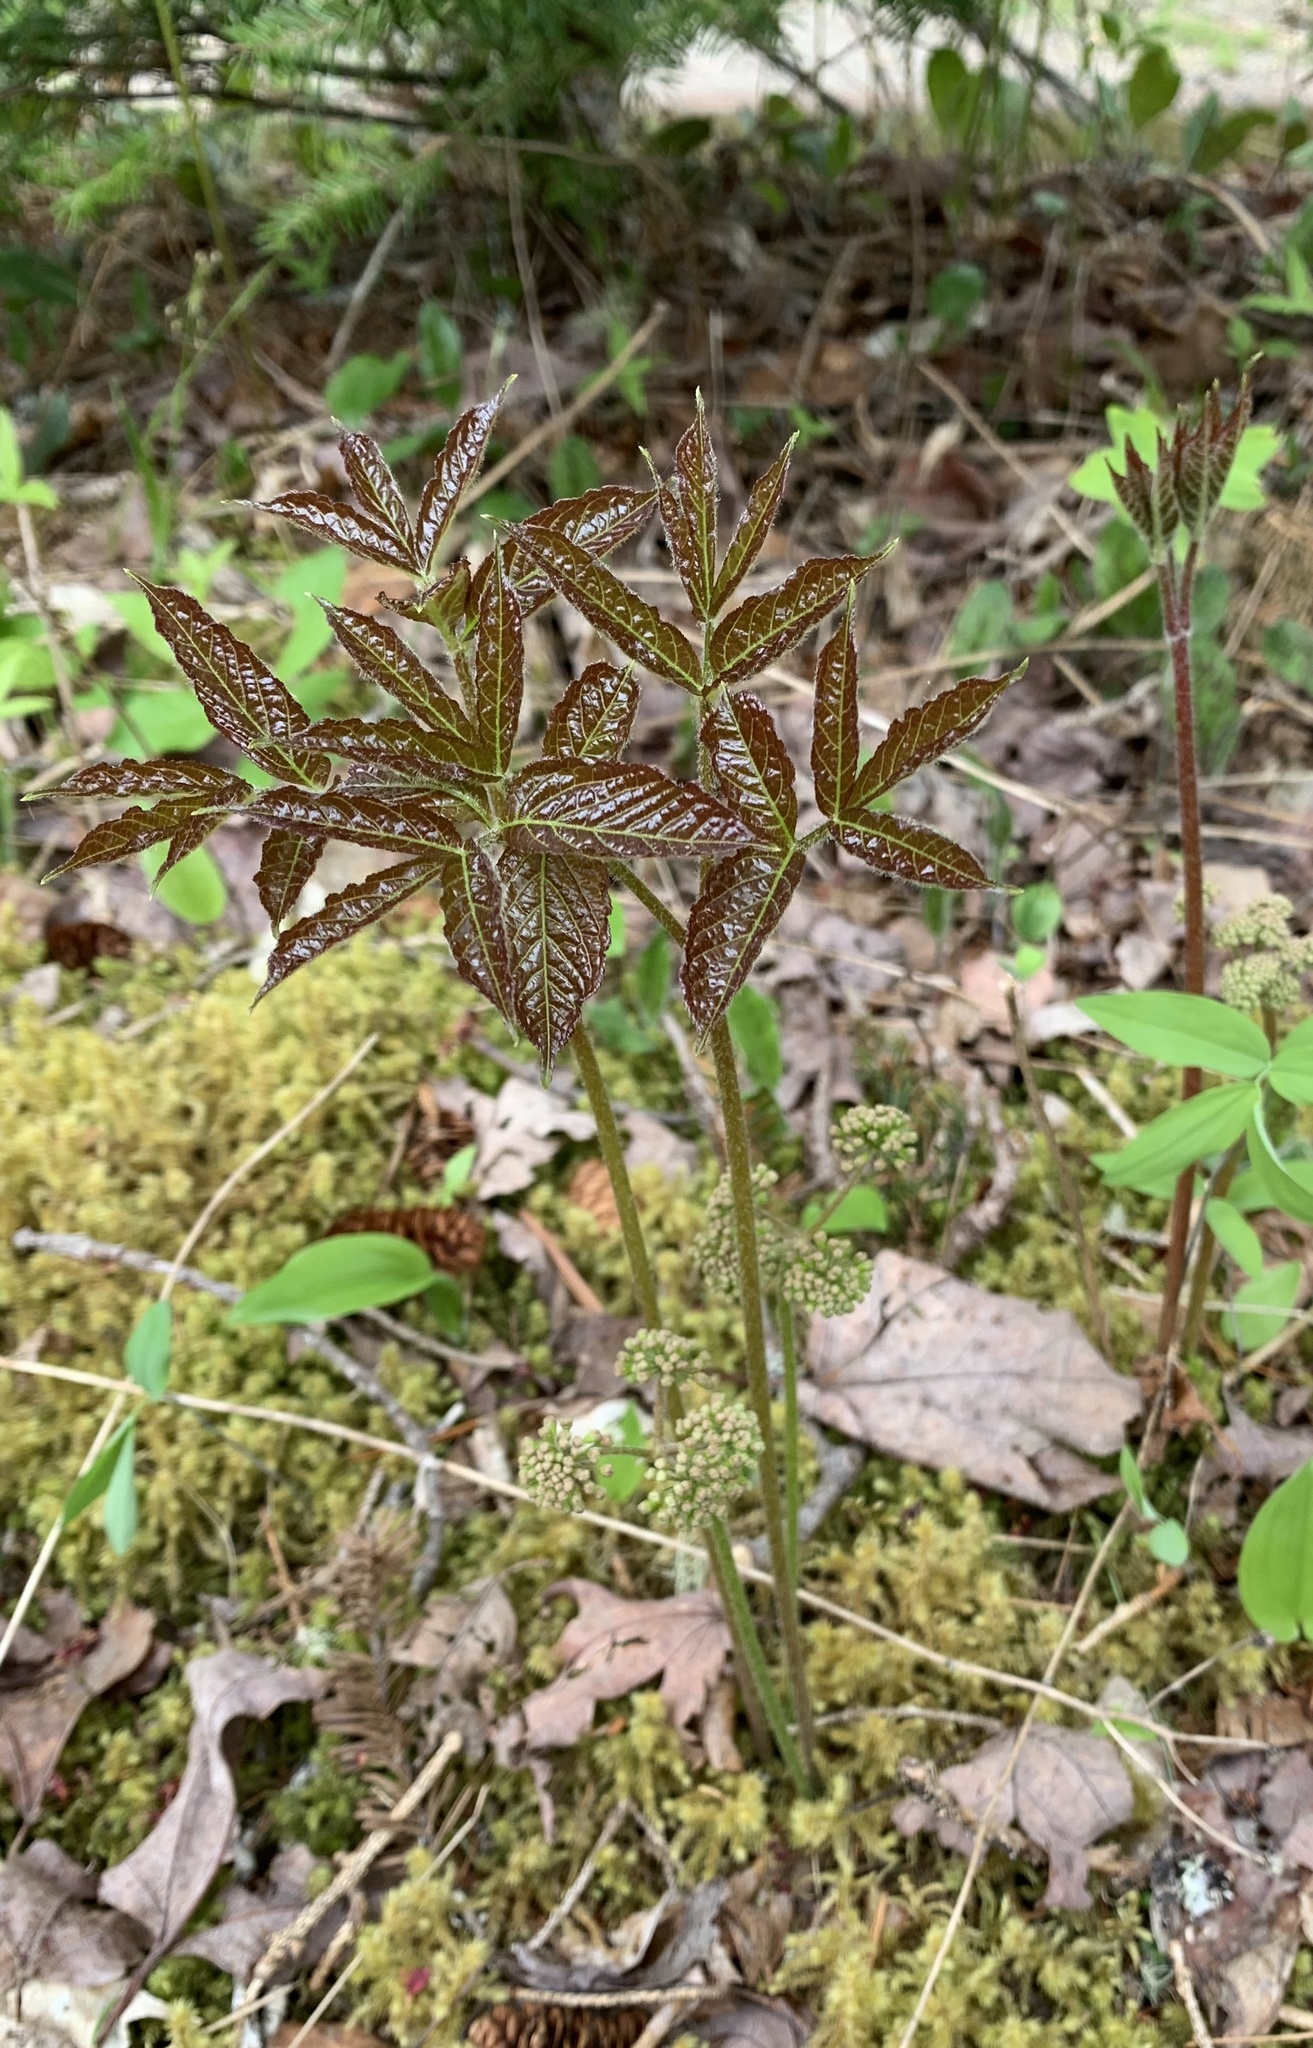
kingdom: Plantae
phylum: Tracheophyta
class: Magnoliopsida
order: Apiales
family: Araliaceae
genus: Aralia
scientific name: Aralia nudicaulis
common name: Wild sarsaparilla
